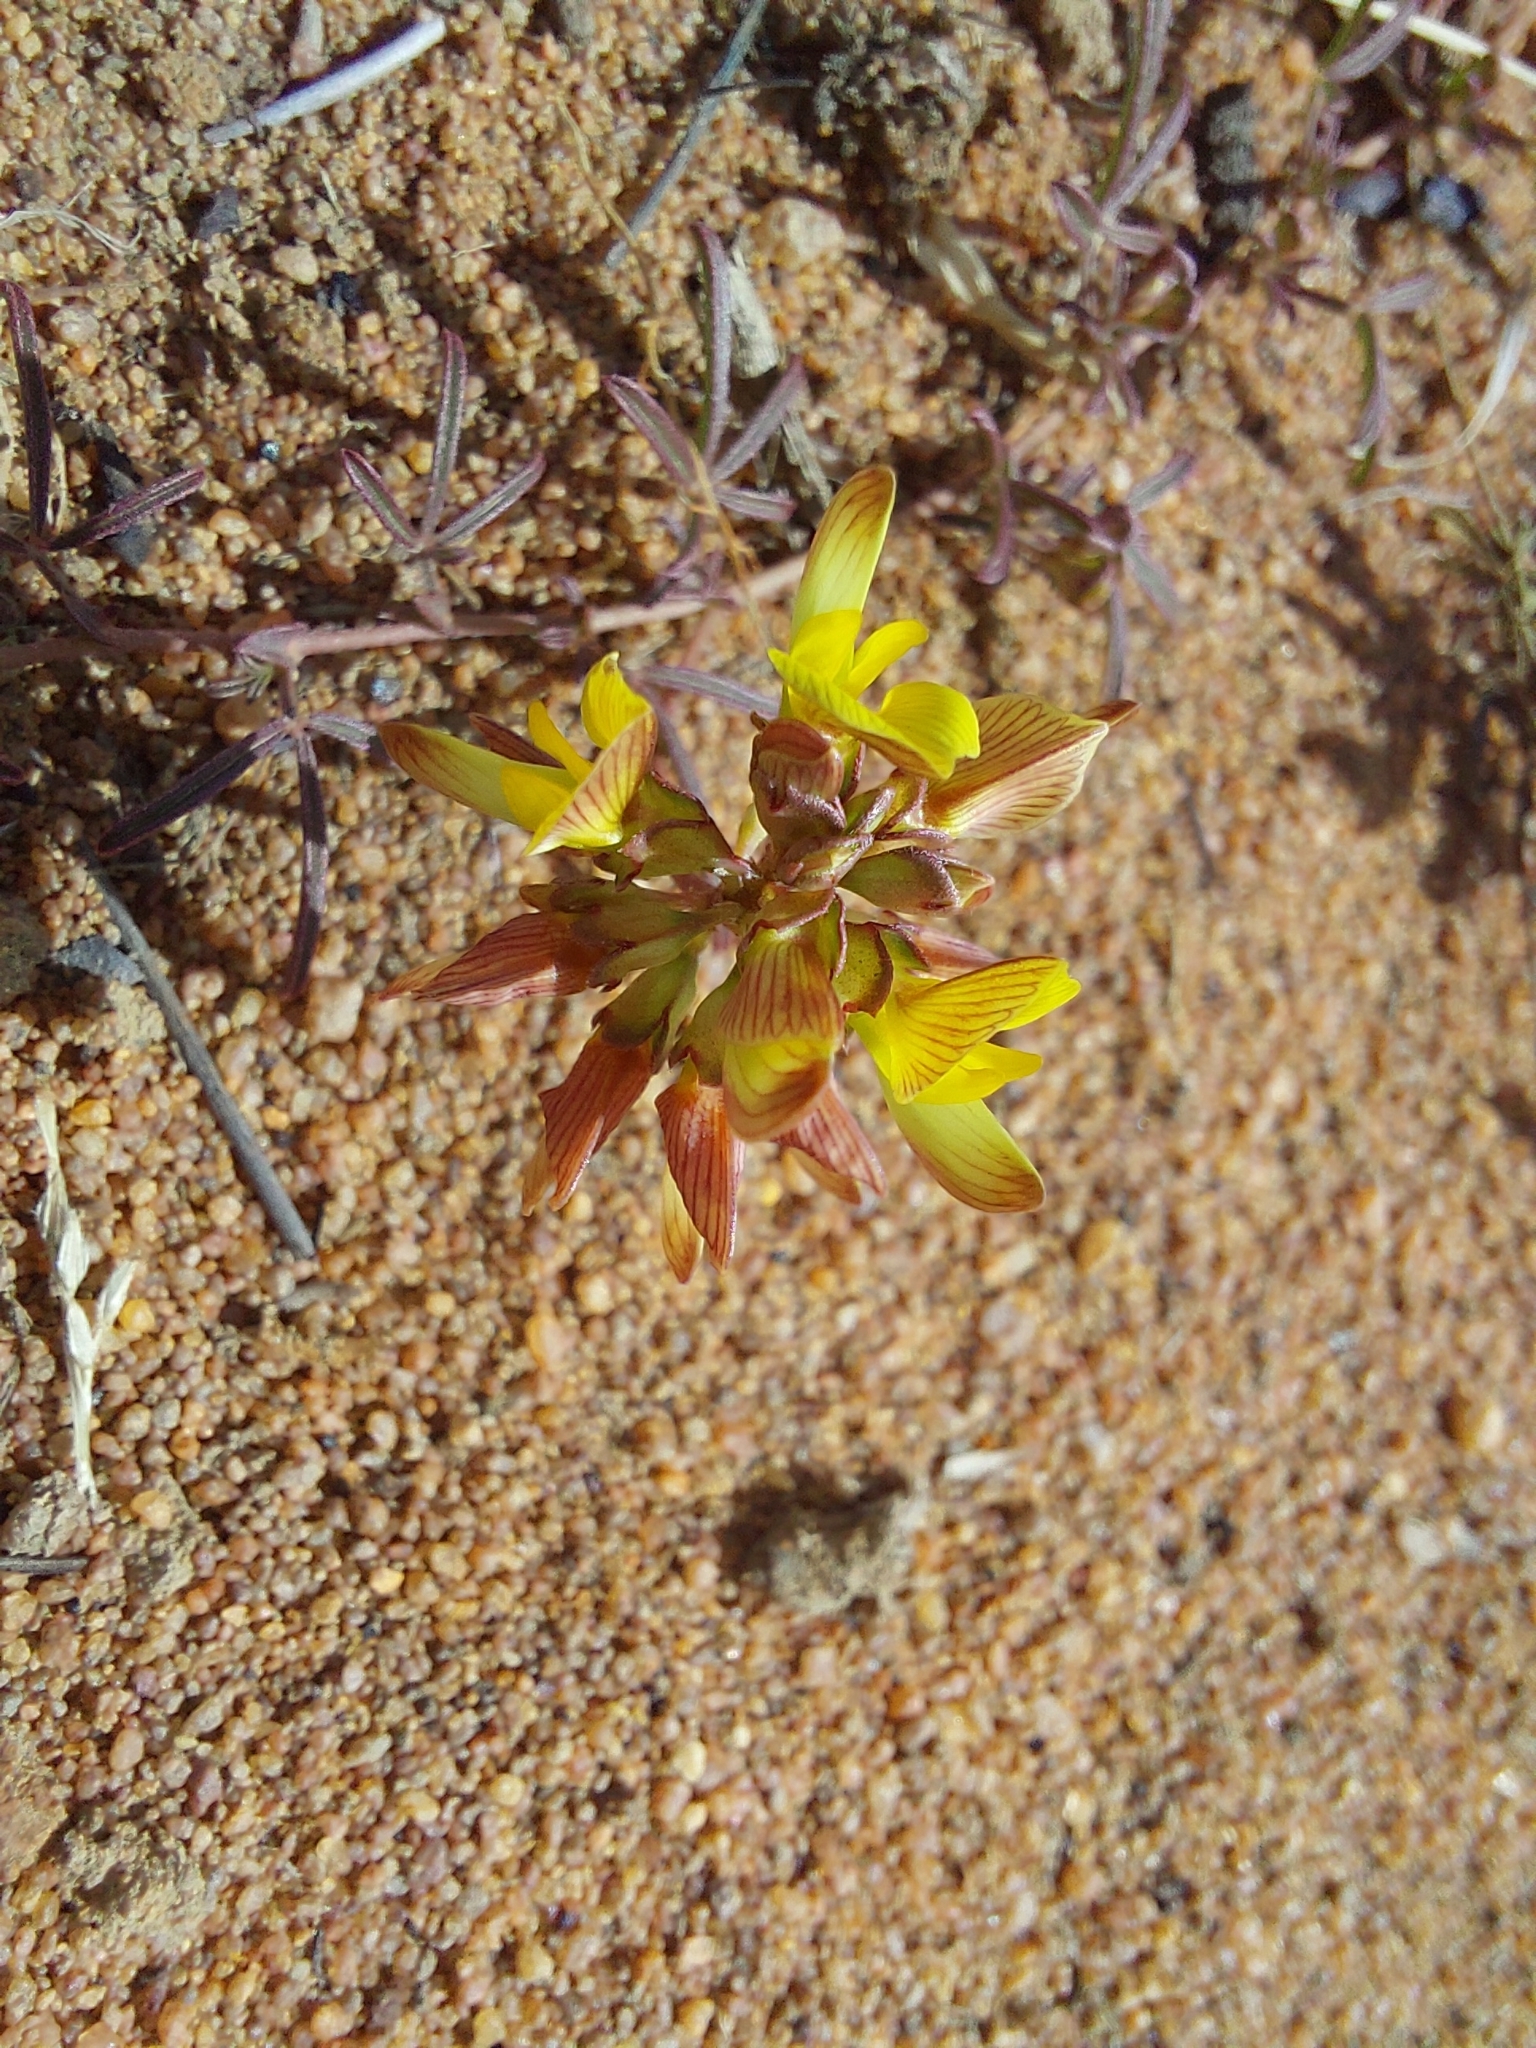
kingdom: Plantae
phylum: Tracheophyta
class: Magnoliopsida
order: Fabales
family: Fabaceae
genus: Listia
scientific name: Listia heterophylla
